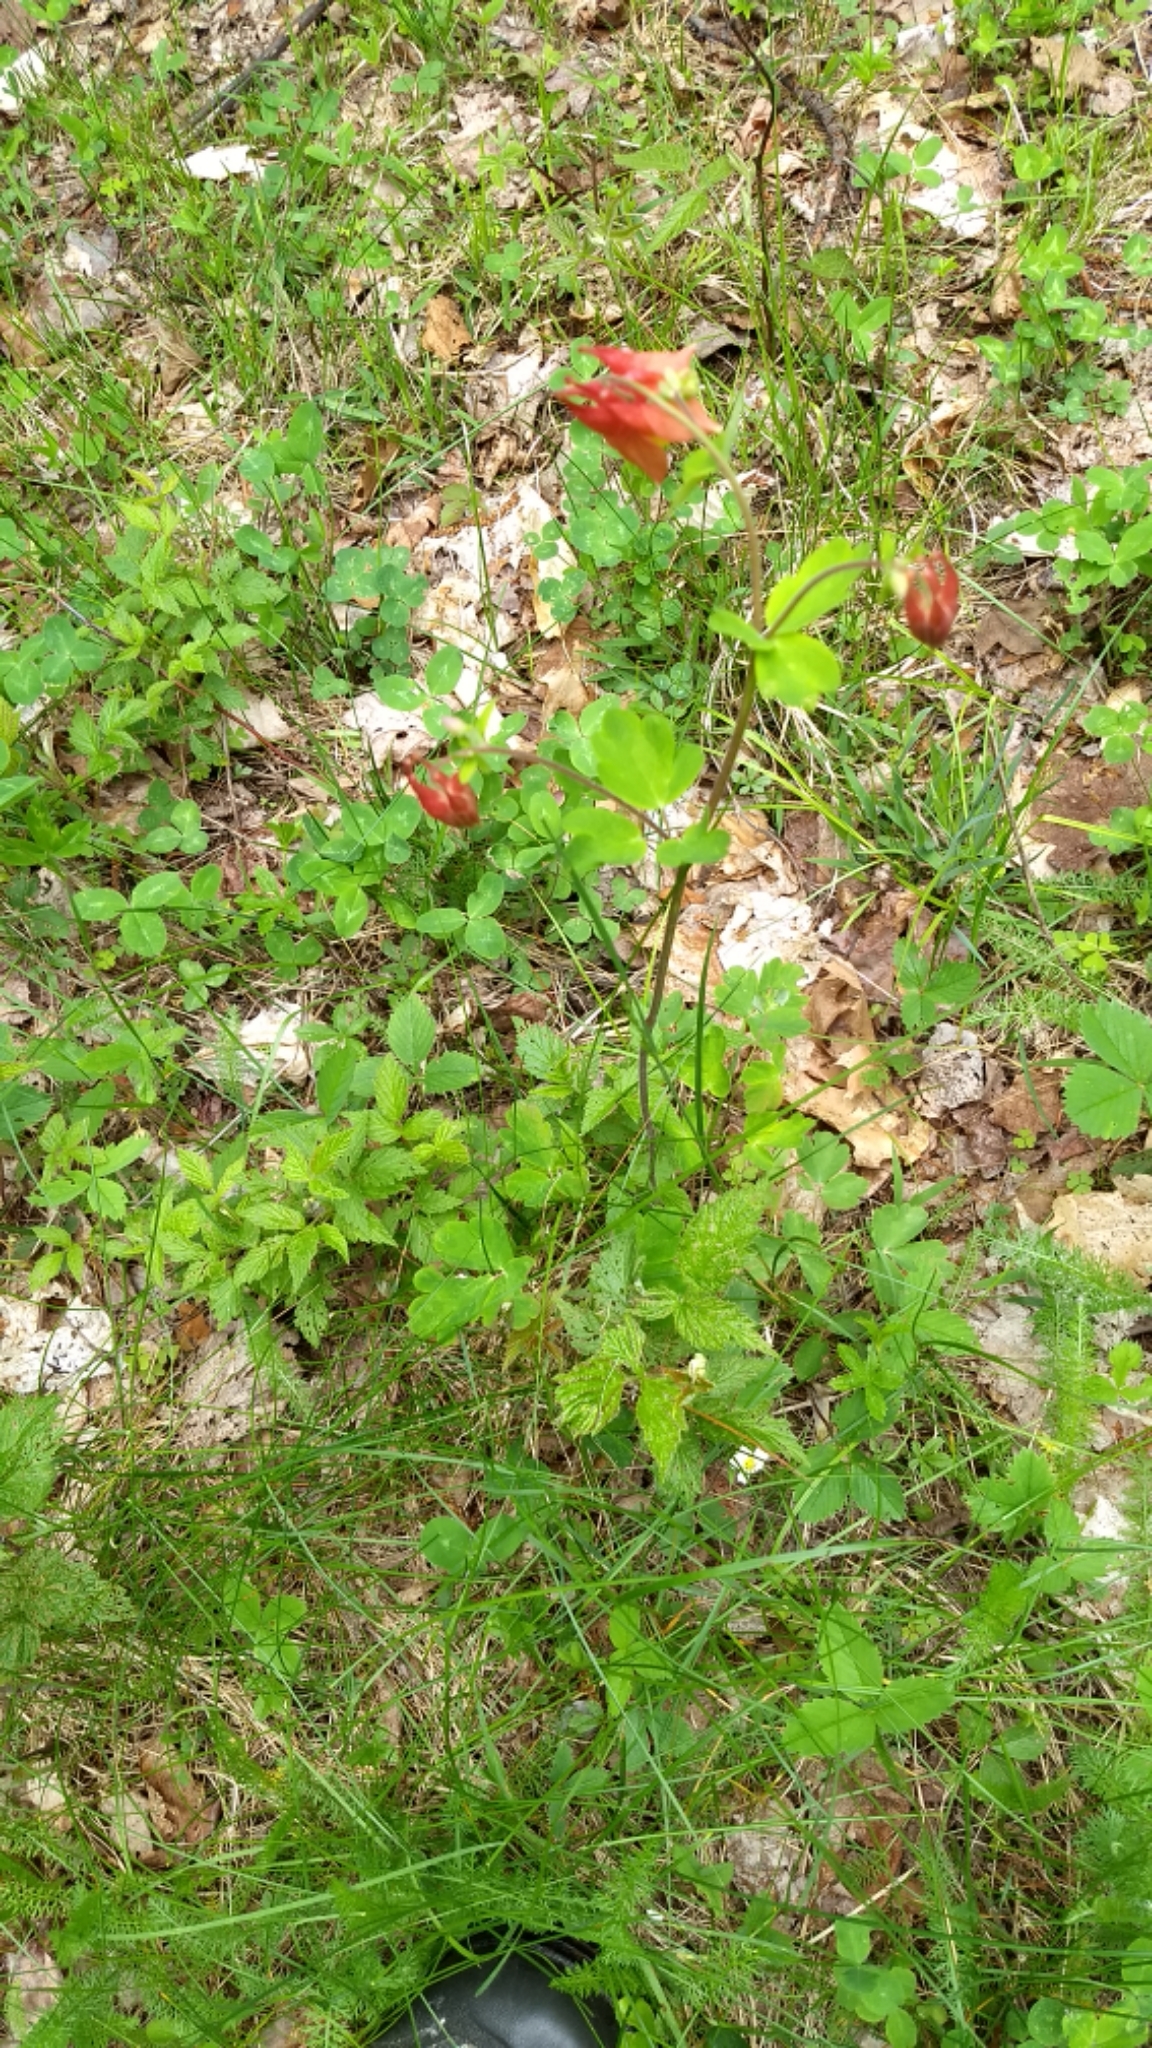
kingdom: Plantae
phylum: Tracheophyta
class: Magnoliopsida
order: Ranunculales
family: Ranunculaceae
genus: Aquilegia
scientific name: Aquilegia canadensis
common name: American columbine
